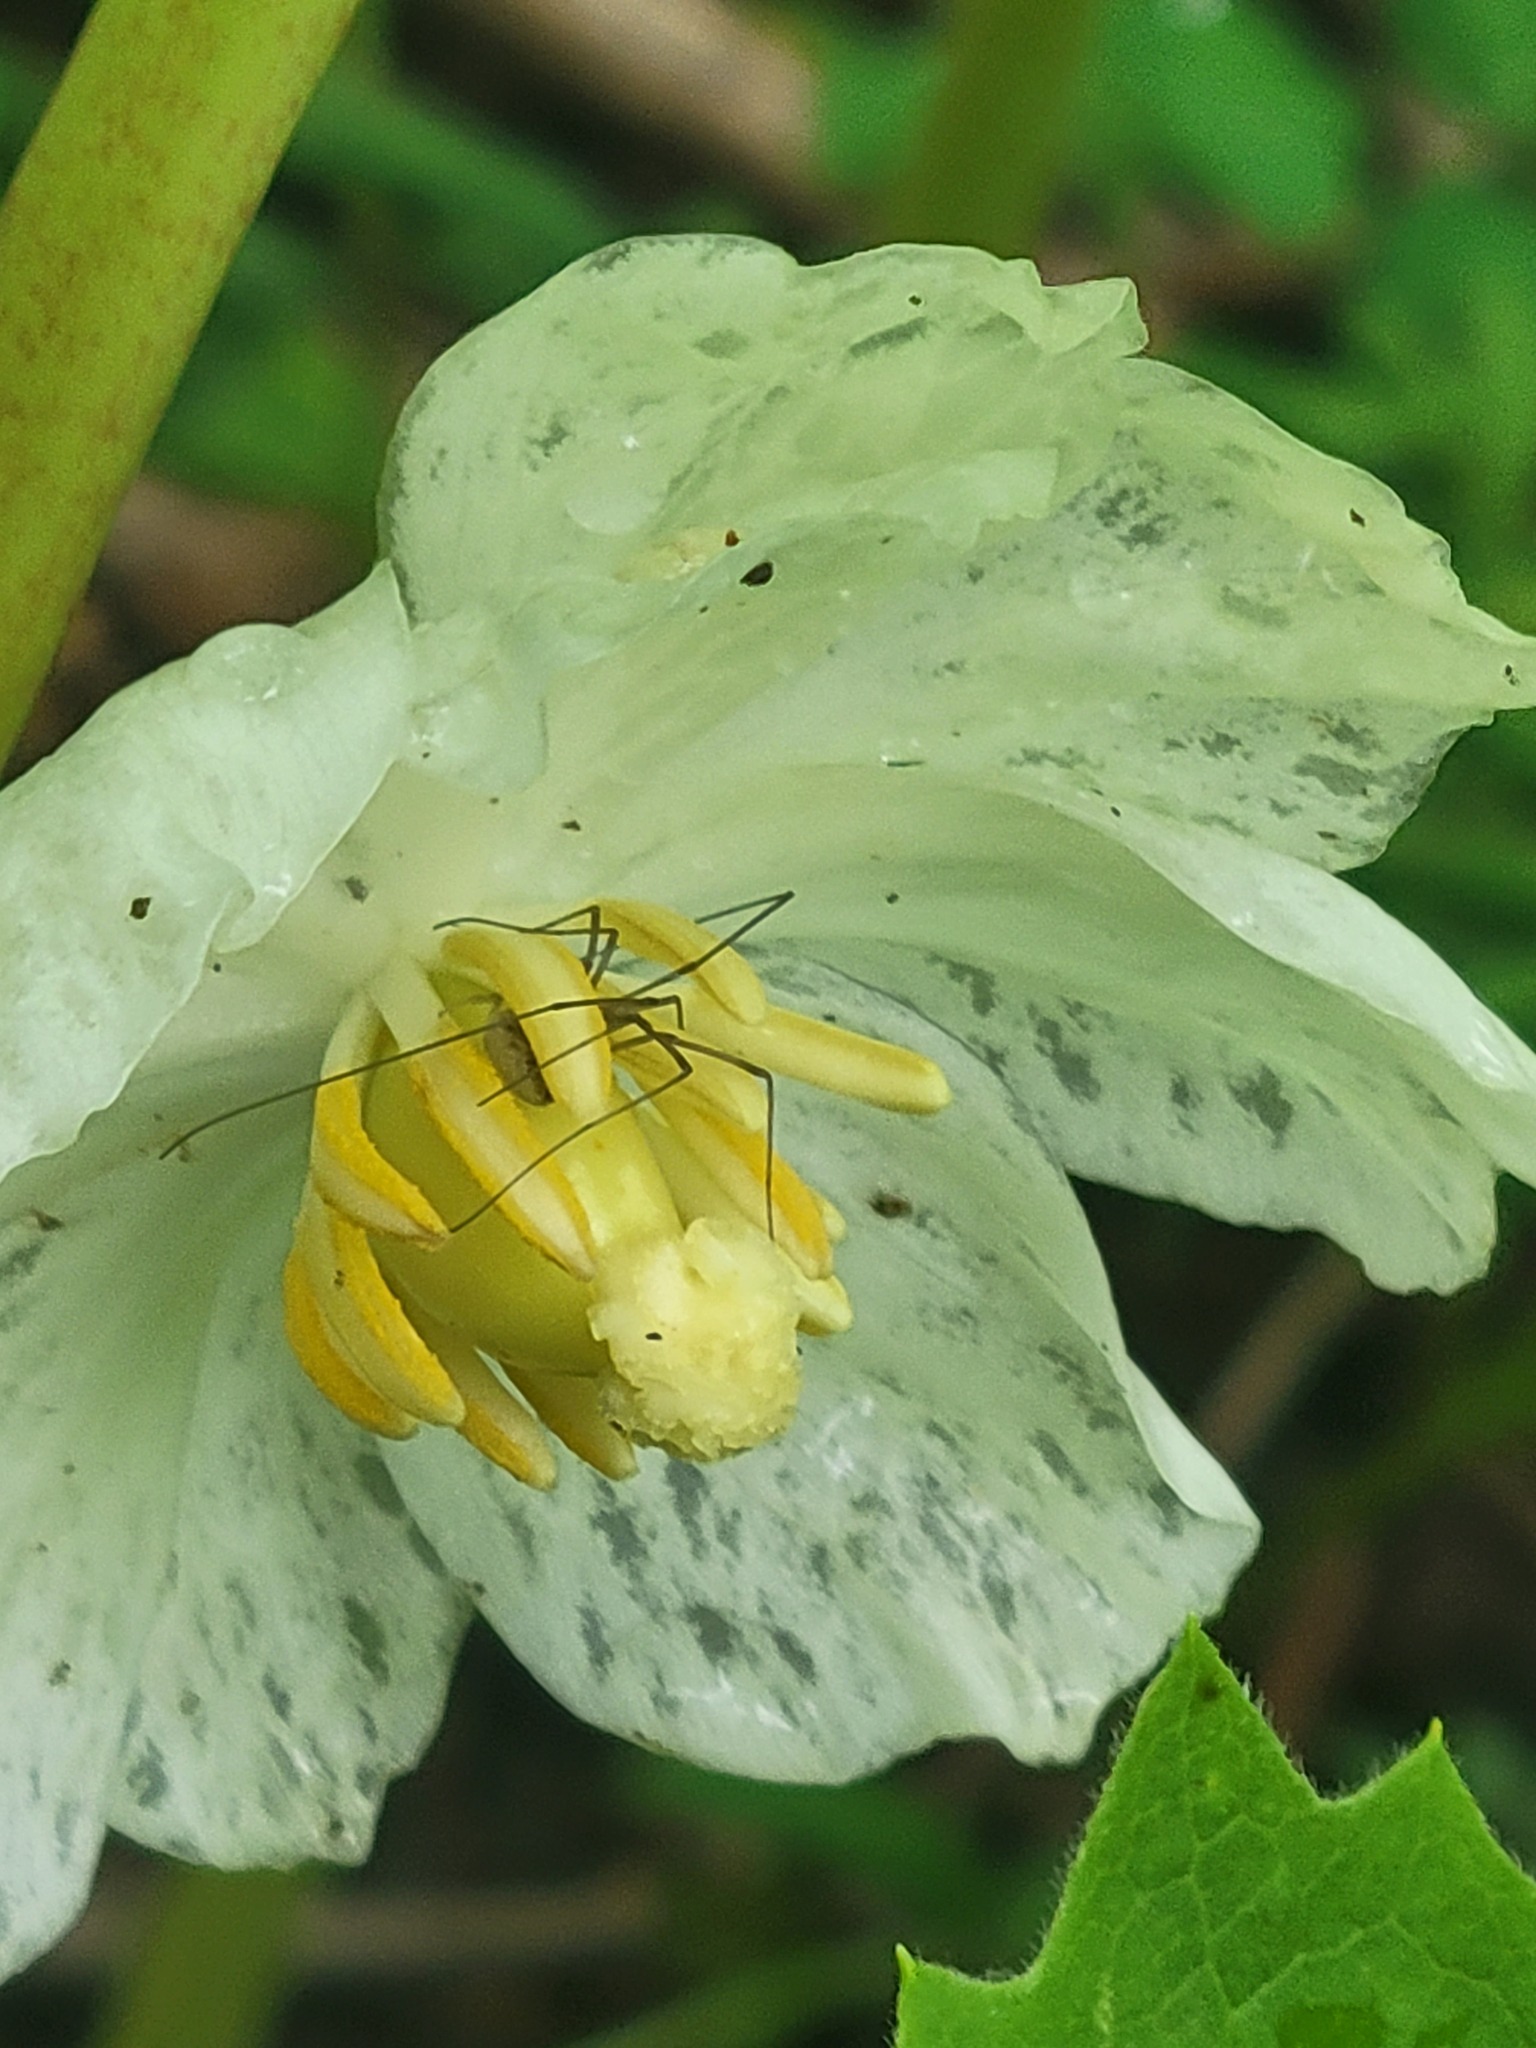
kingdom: Fungi
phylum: Basidiomycota
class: Pucciniomycetes
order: Pucciniales
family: Pucciniaceae
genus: Puccinia
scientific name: Puccinia podophylli
